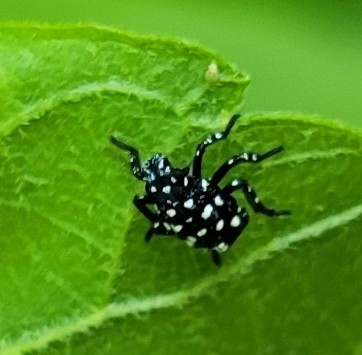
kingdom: Animalia
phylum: Arthropoda
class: Insecta
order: Hemiptera
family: Fulgoridae
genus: Lycorma
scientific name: Lycorma delicatula
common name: Spotted lanternfly
